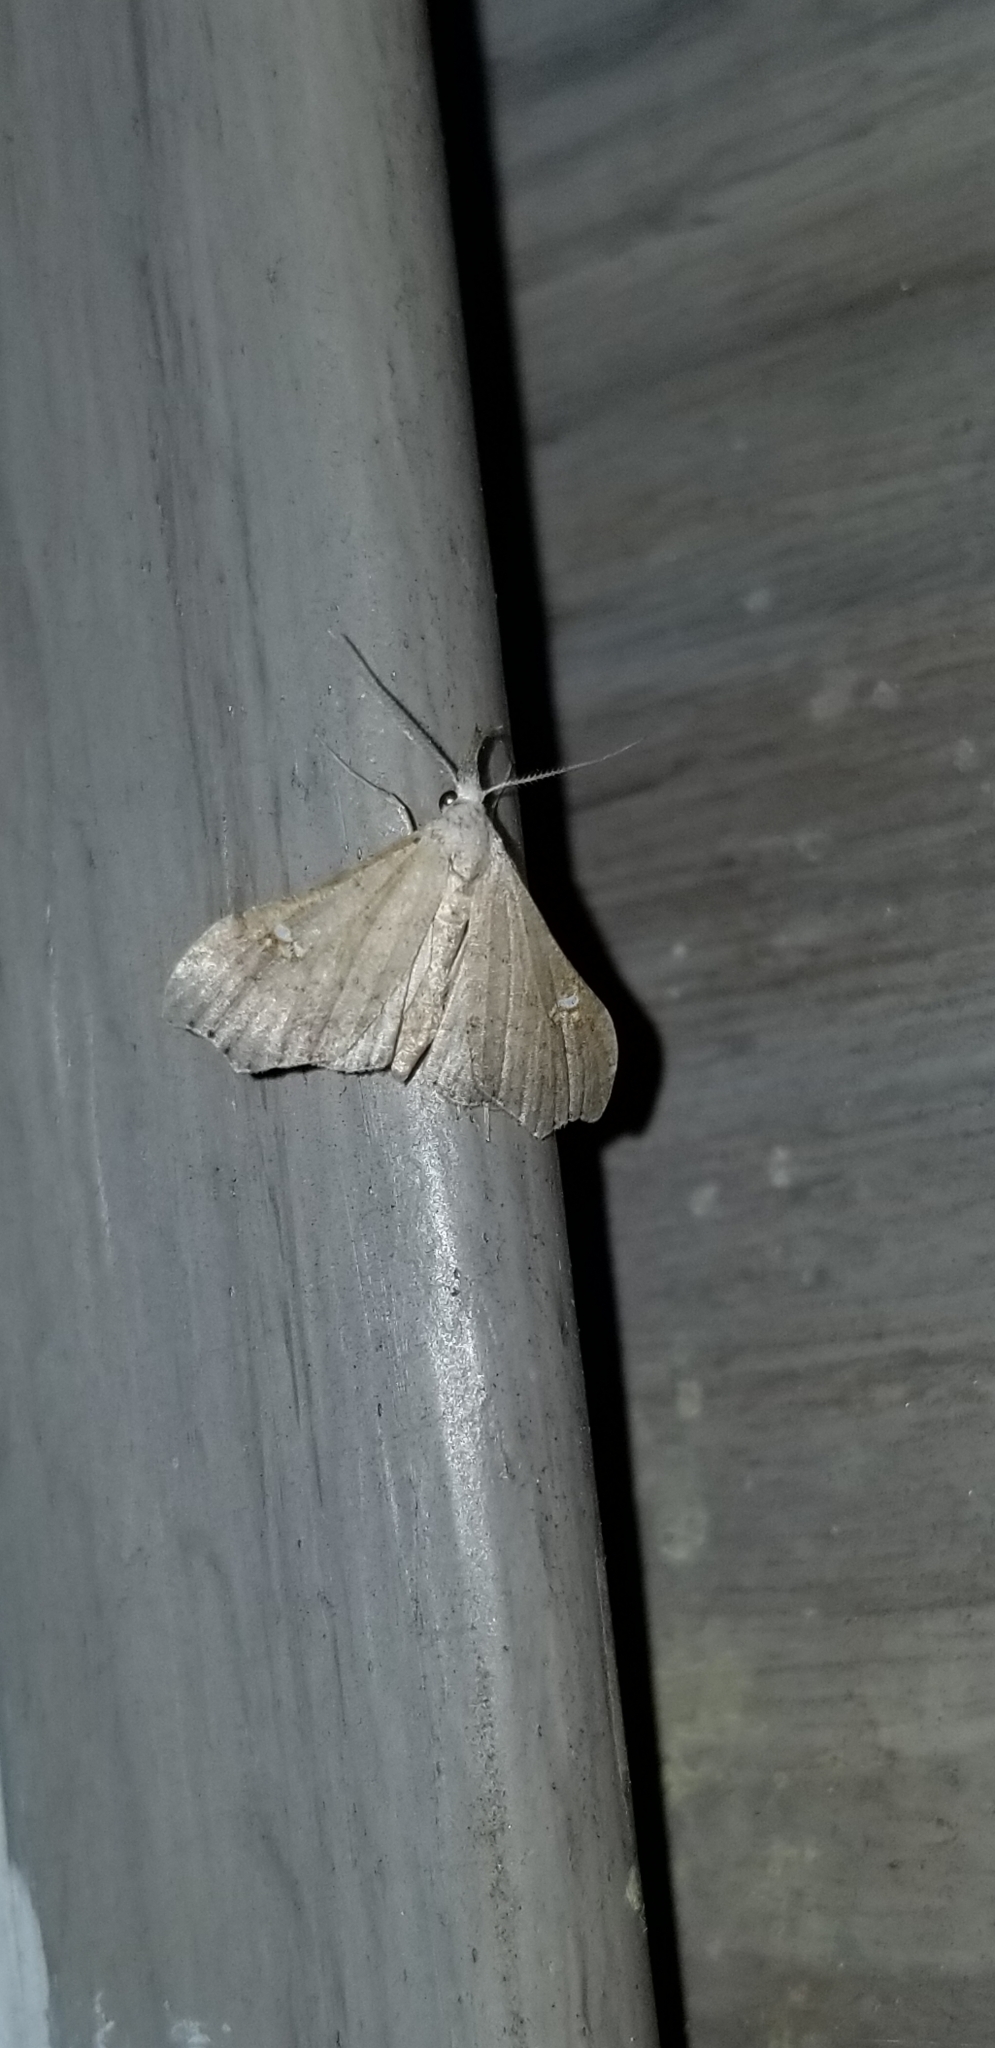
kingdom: Animalia
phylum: Arthropoda
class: Insecta
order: Lepidoptera
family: Erebidae
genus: Redectis
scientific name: Redectis vitrea
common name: White-spotted redectis
